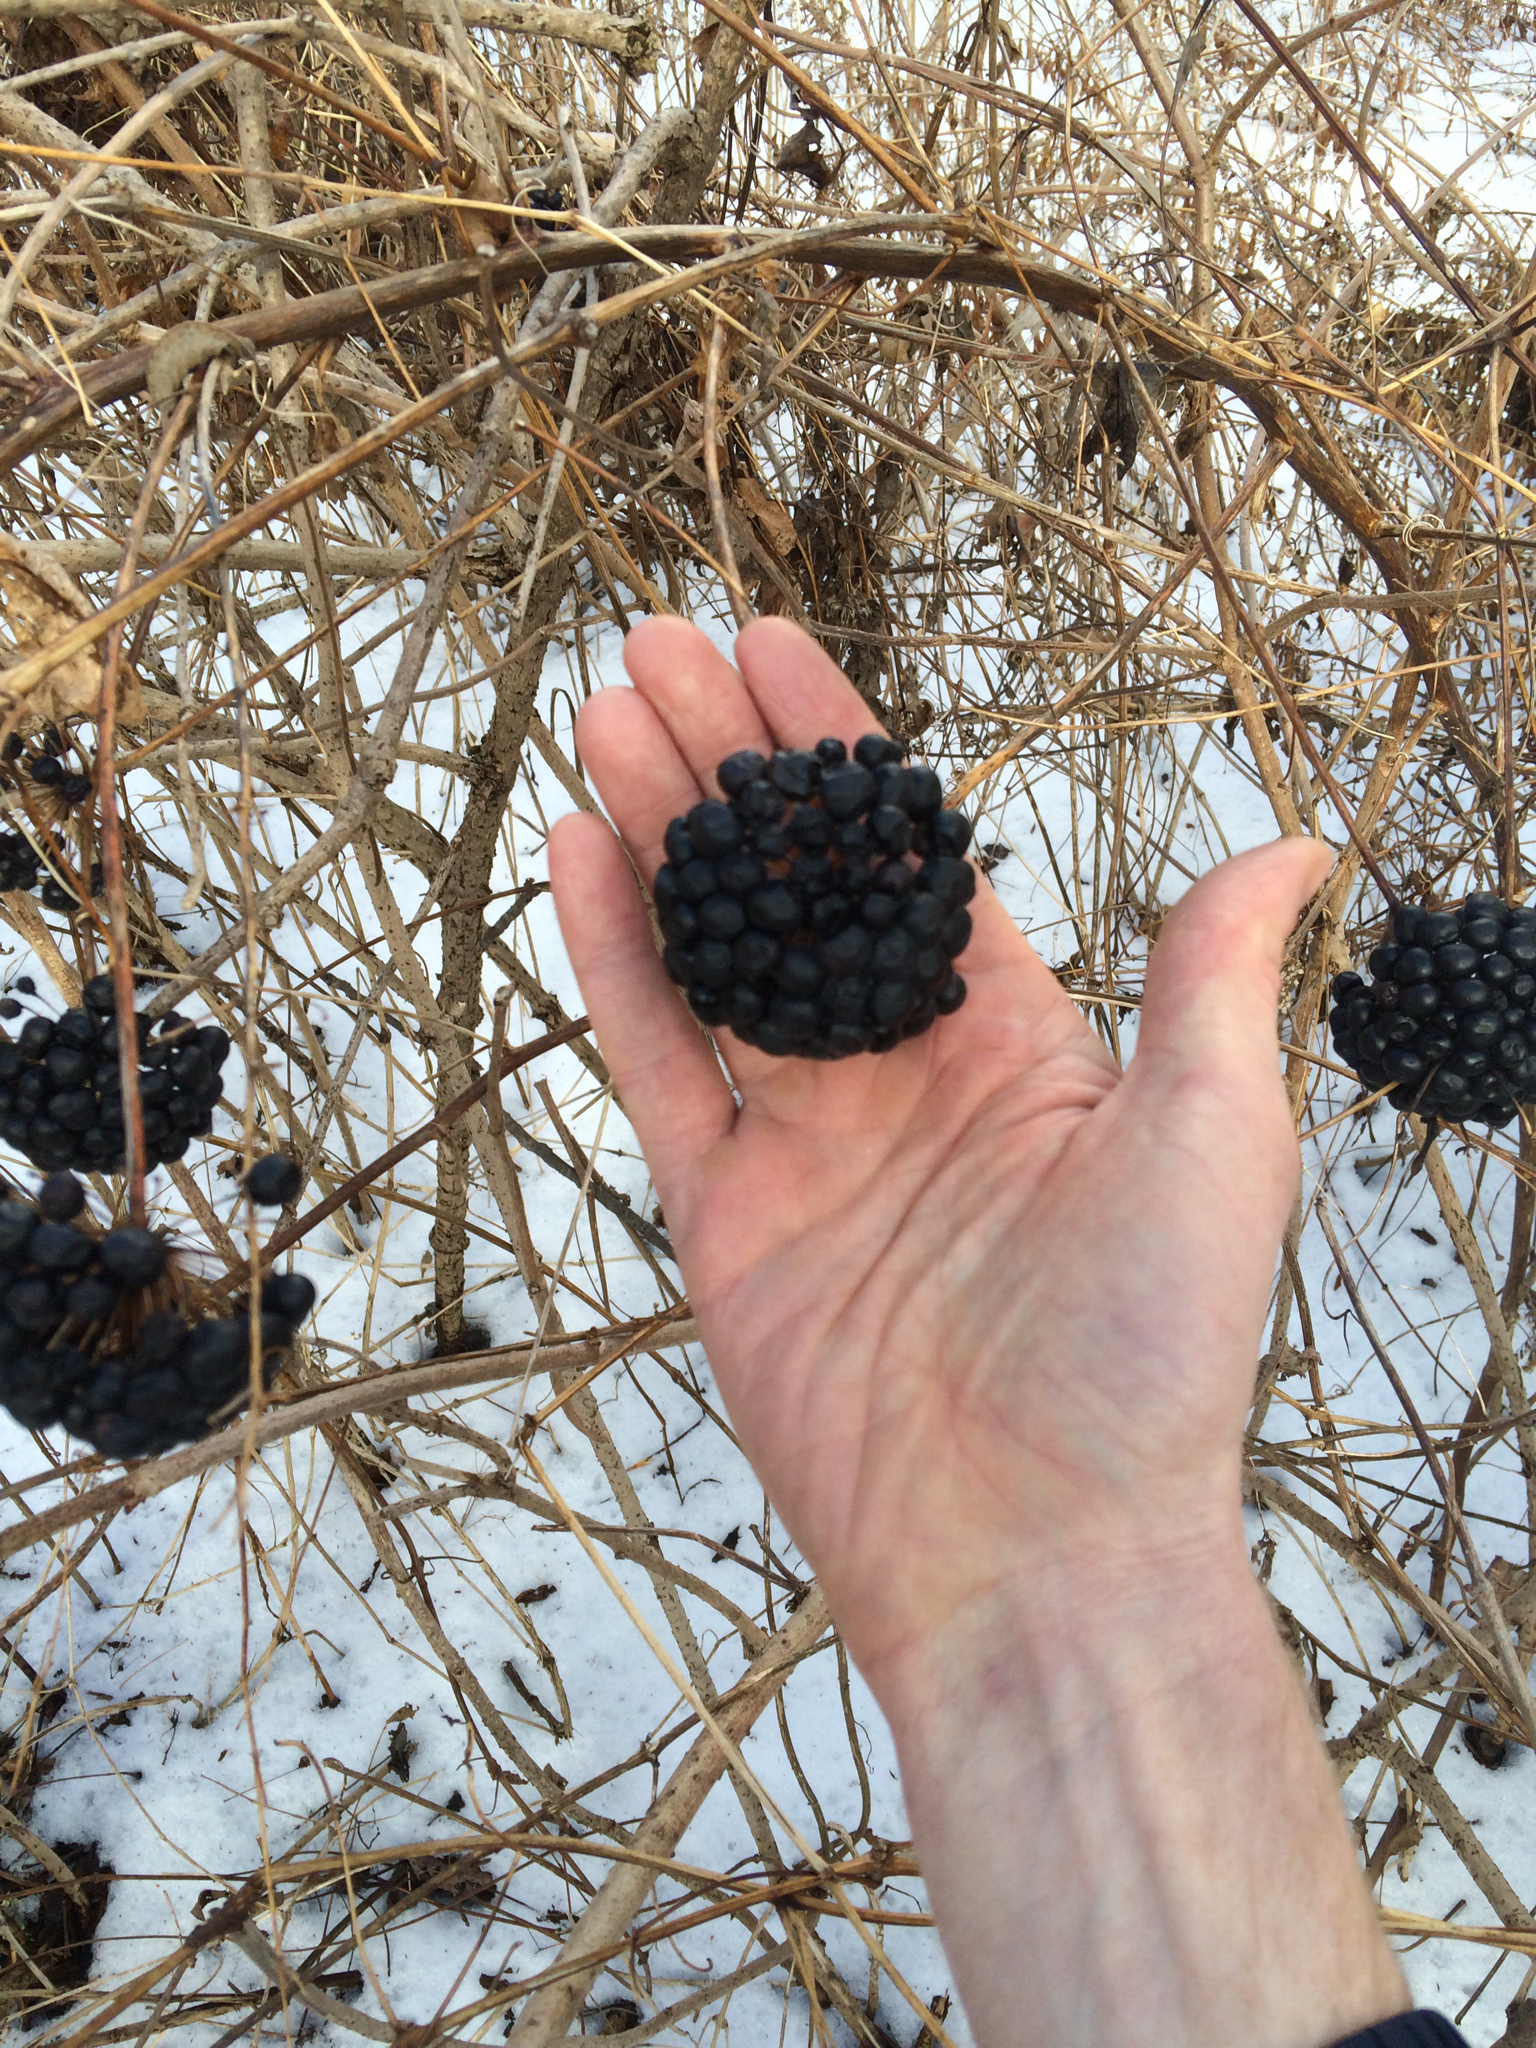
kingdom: Plantae
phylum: Tracheophyta
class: Liliopsida
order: Liliales
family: Smilacaceae
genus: Smilax
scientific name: Smilax herbacea
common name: Jacob's-ladder
